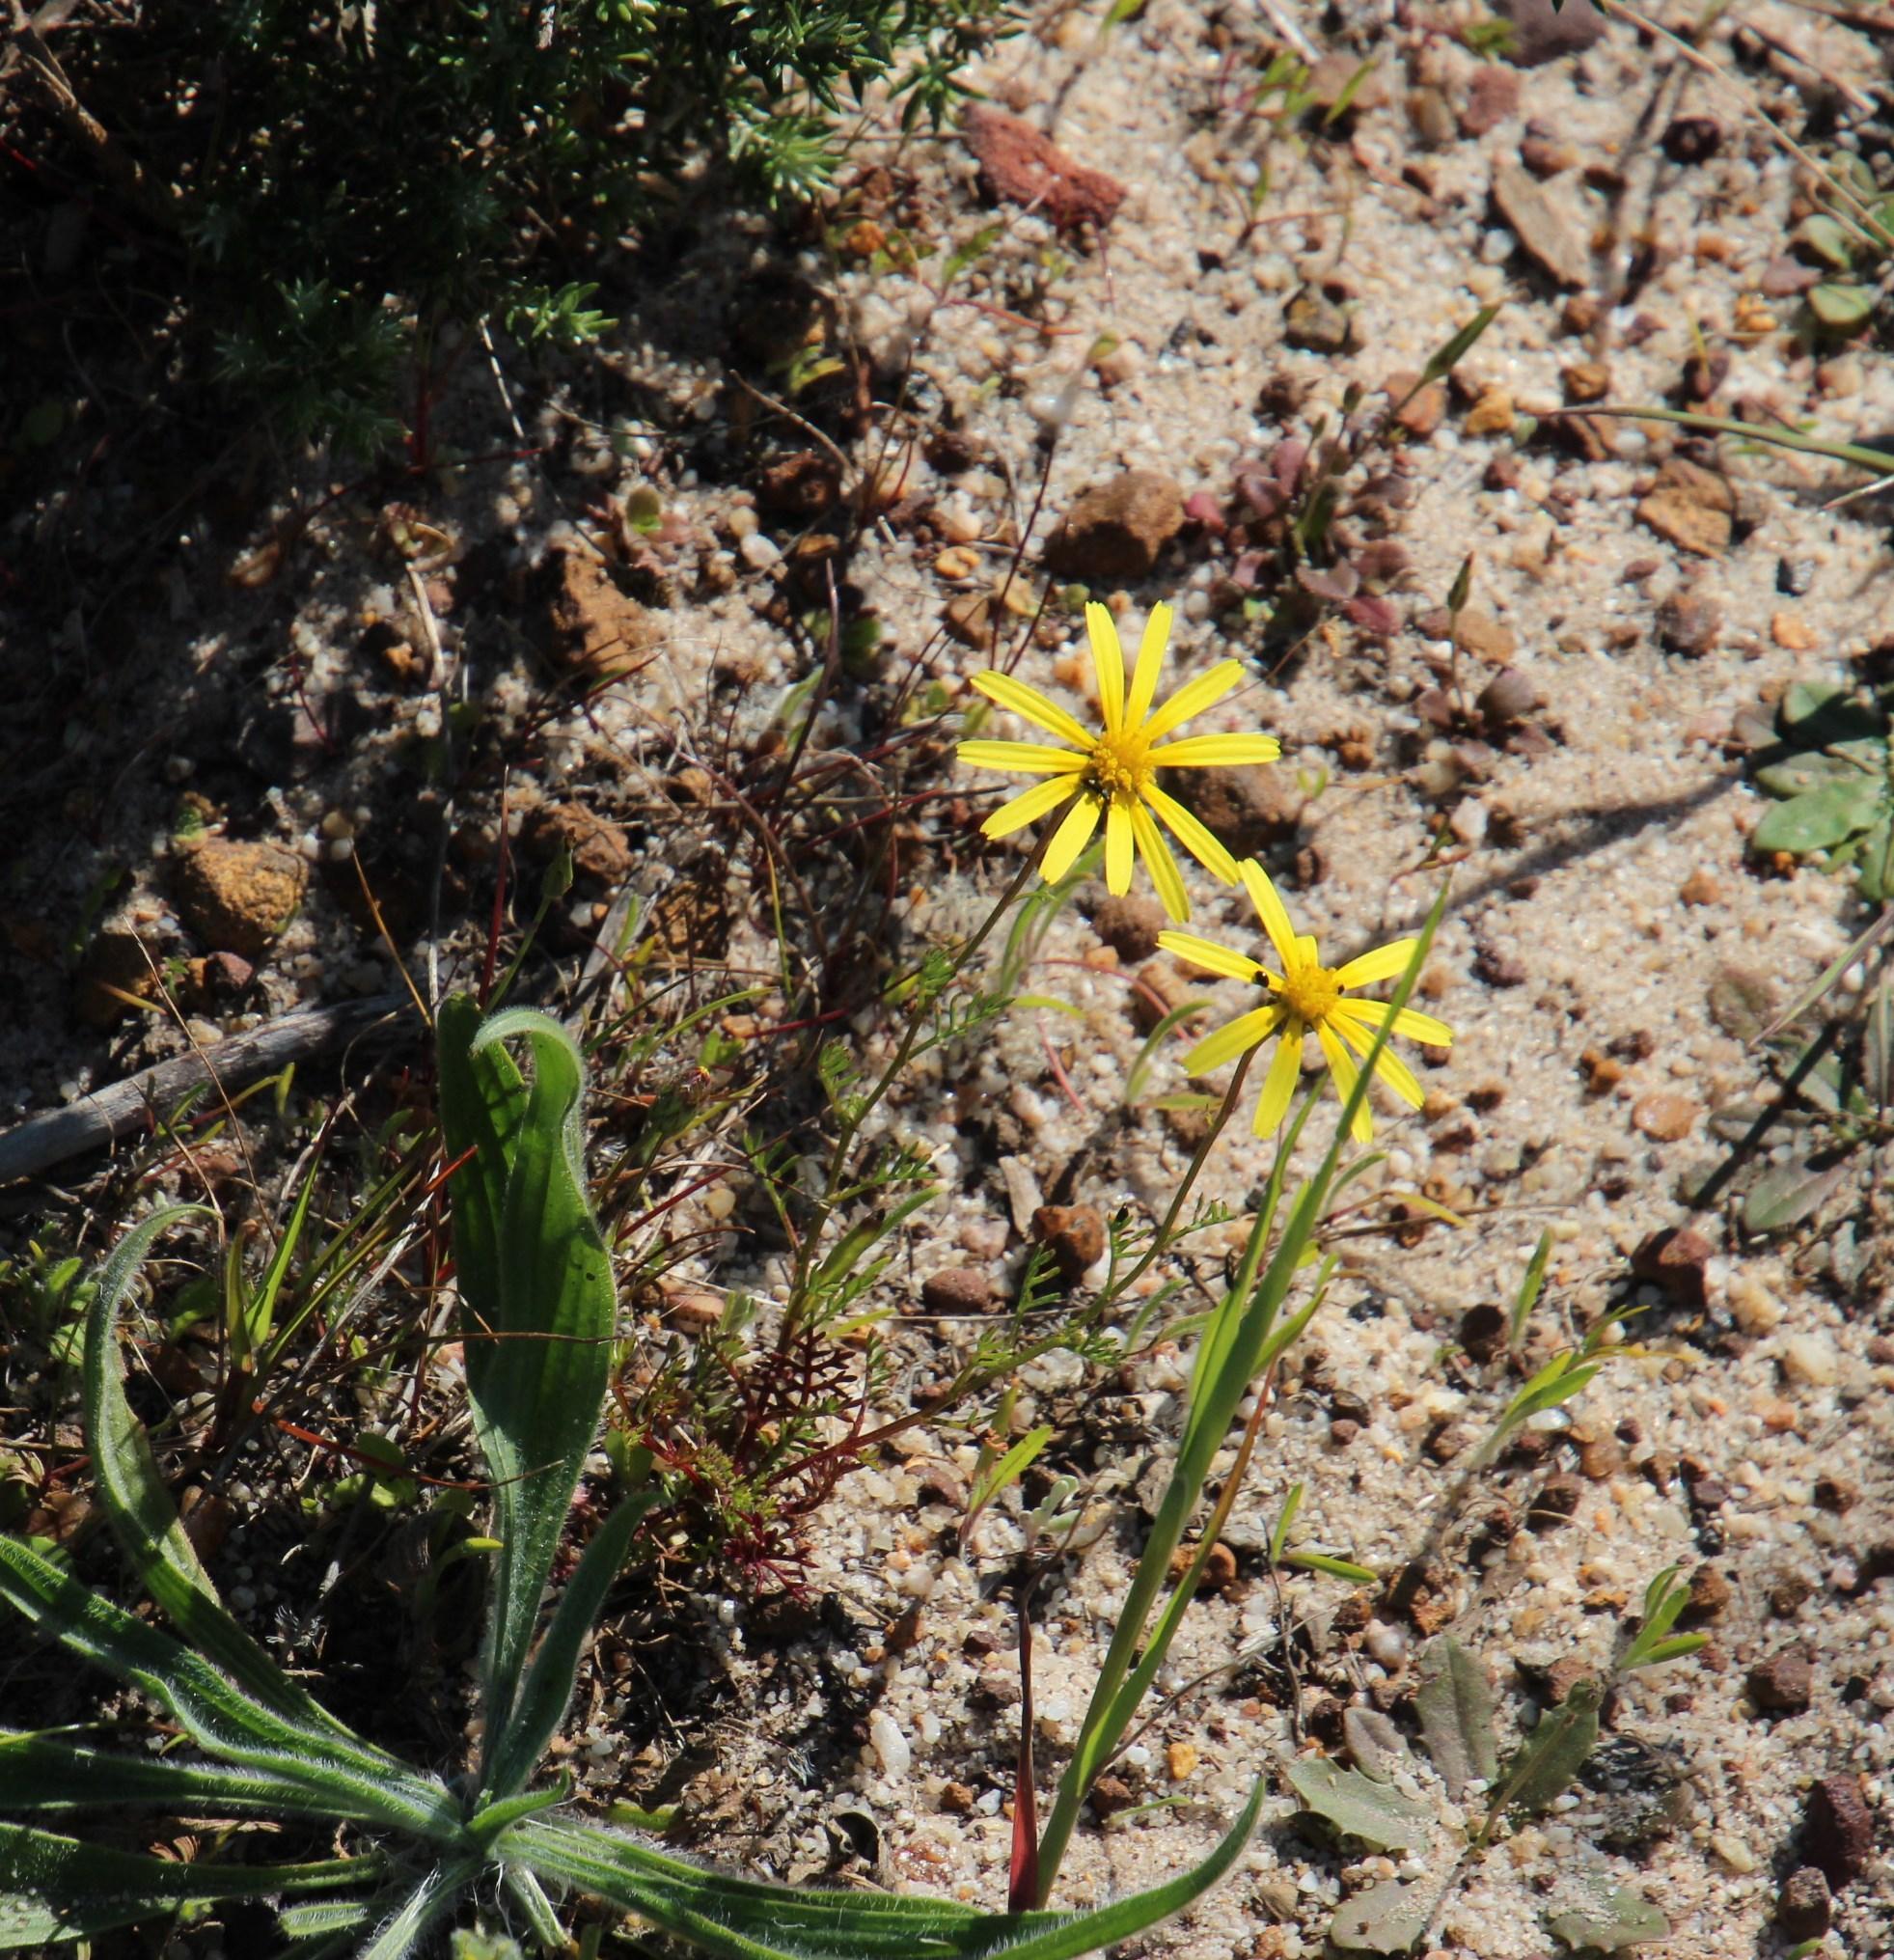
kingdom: Plantae
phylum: Tracheophyta
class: Magnoliopsida
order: Asterales
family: Asteraceae
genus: Ursinia
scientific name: Ursinia anthemoides
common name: Ursinia
